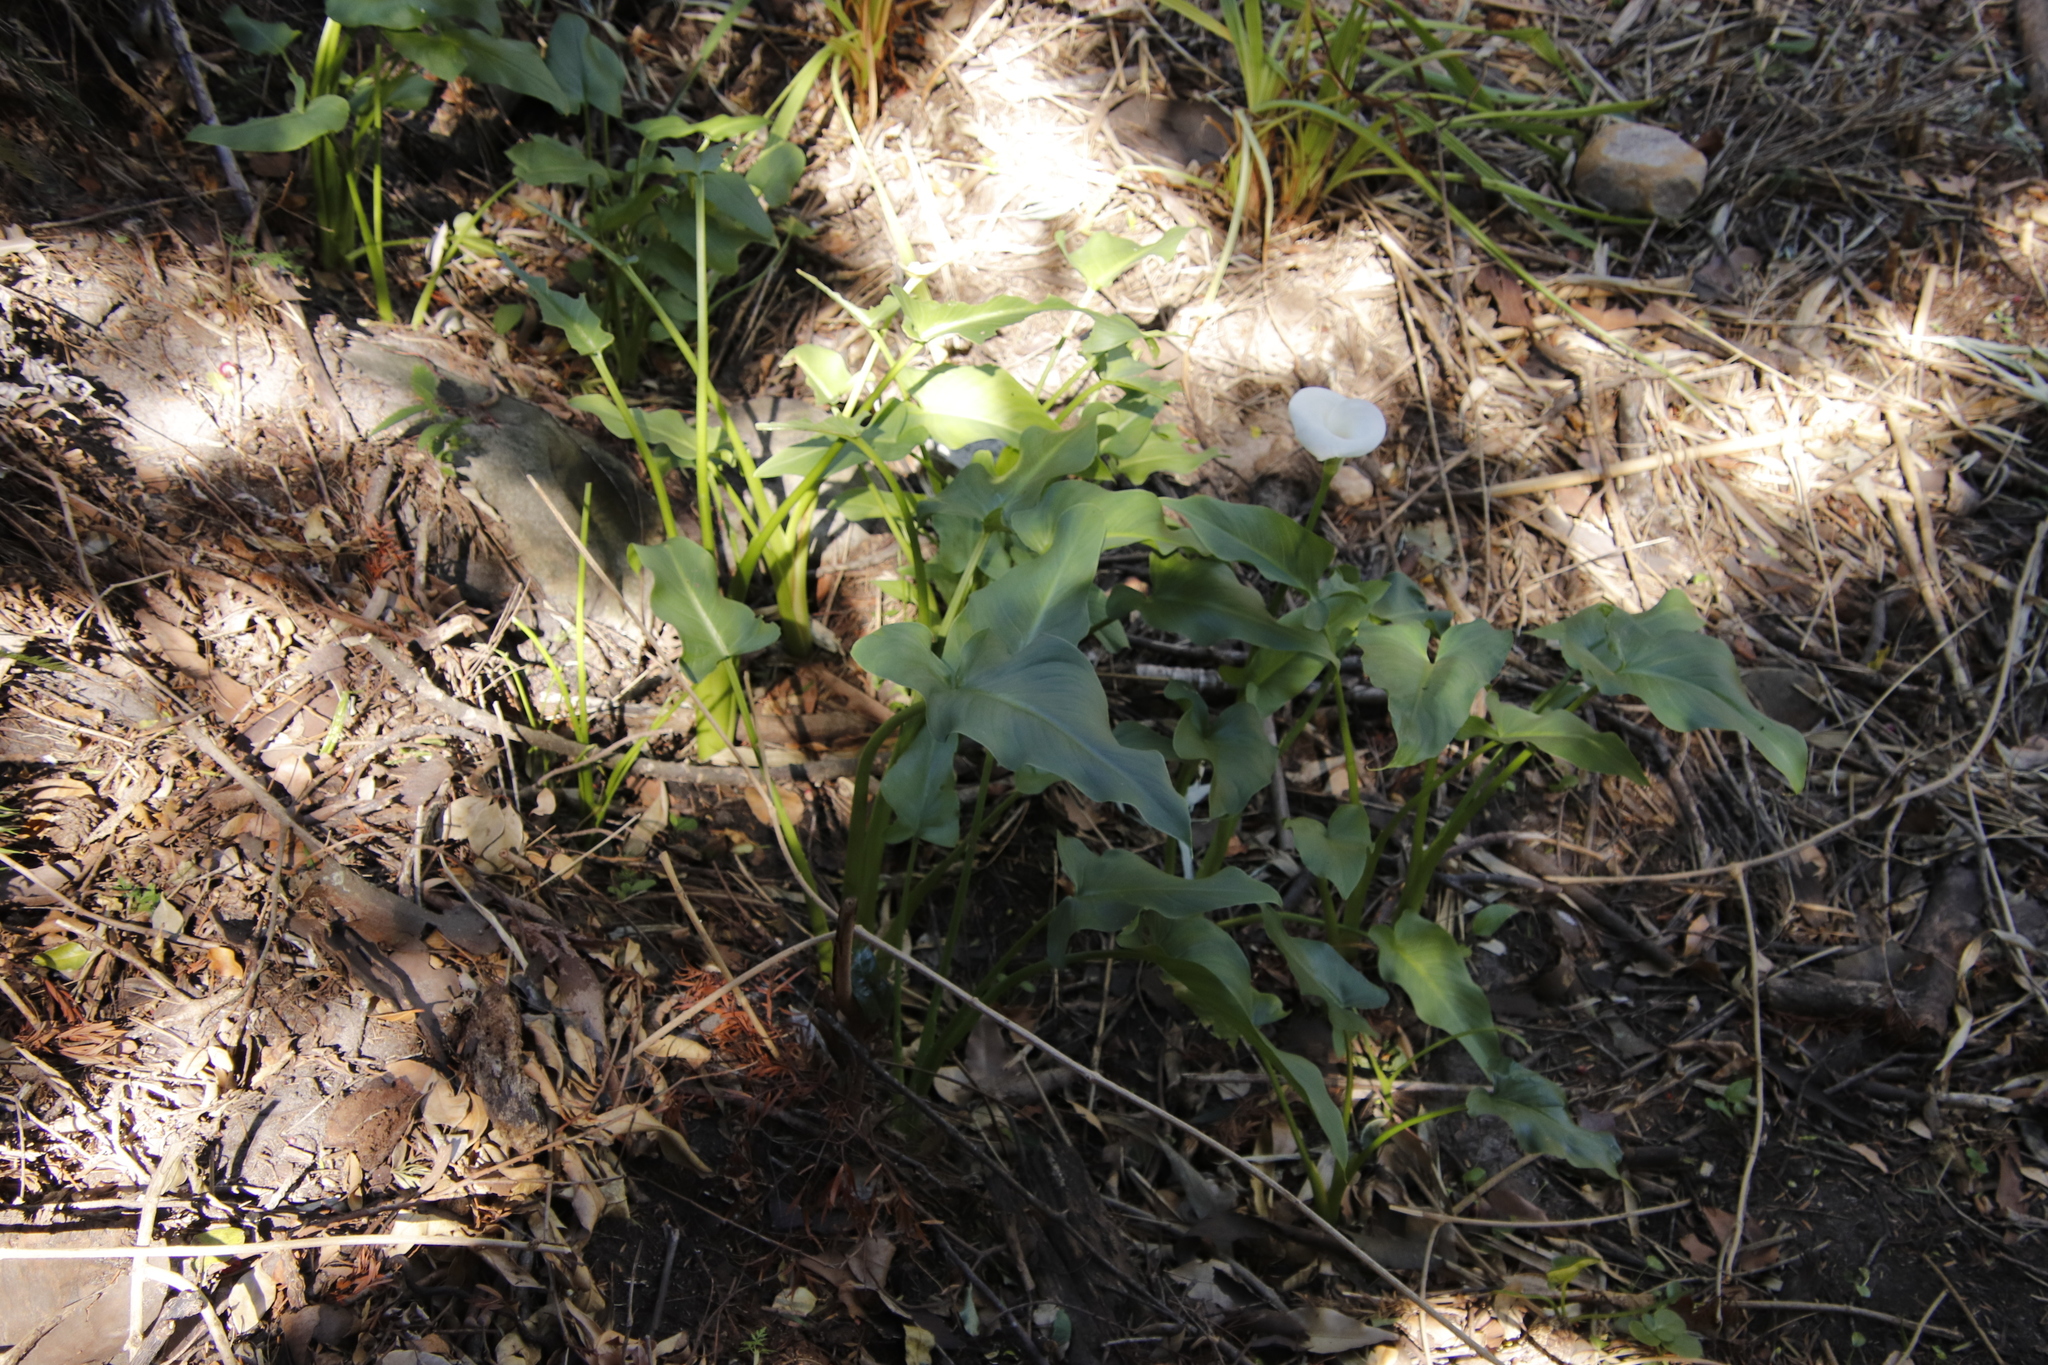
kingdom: Plantae
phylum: Tracheophyta
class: Liliopsida
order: Alismatales
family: Araceae
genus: Zantedeschia
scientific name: Zantedeschia aethiopica
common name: Altar-lily
